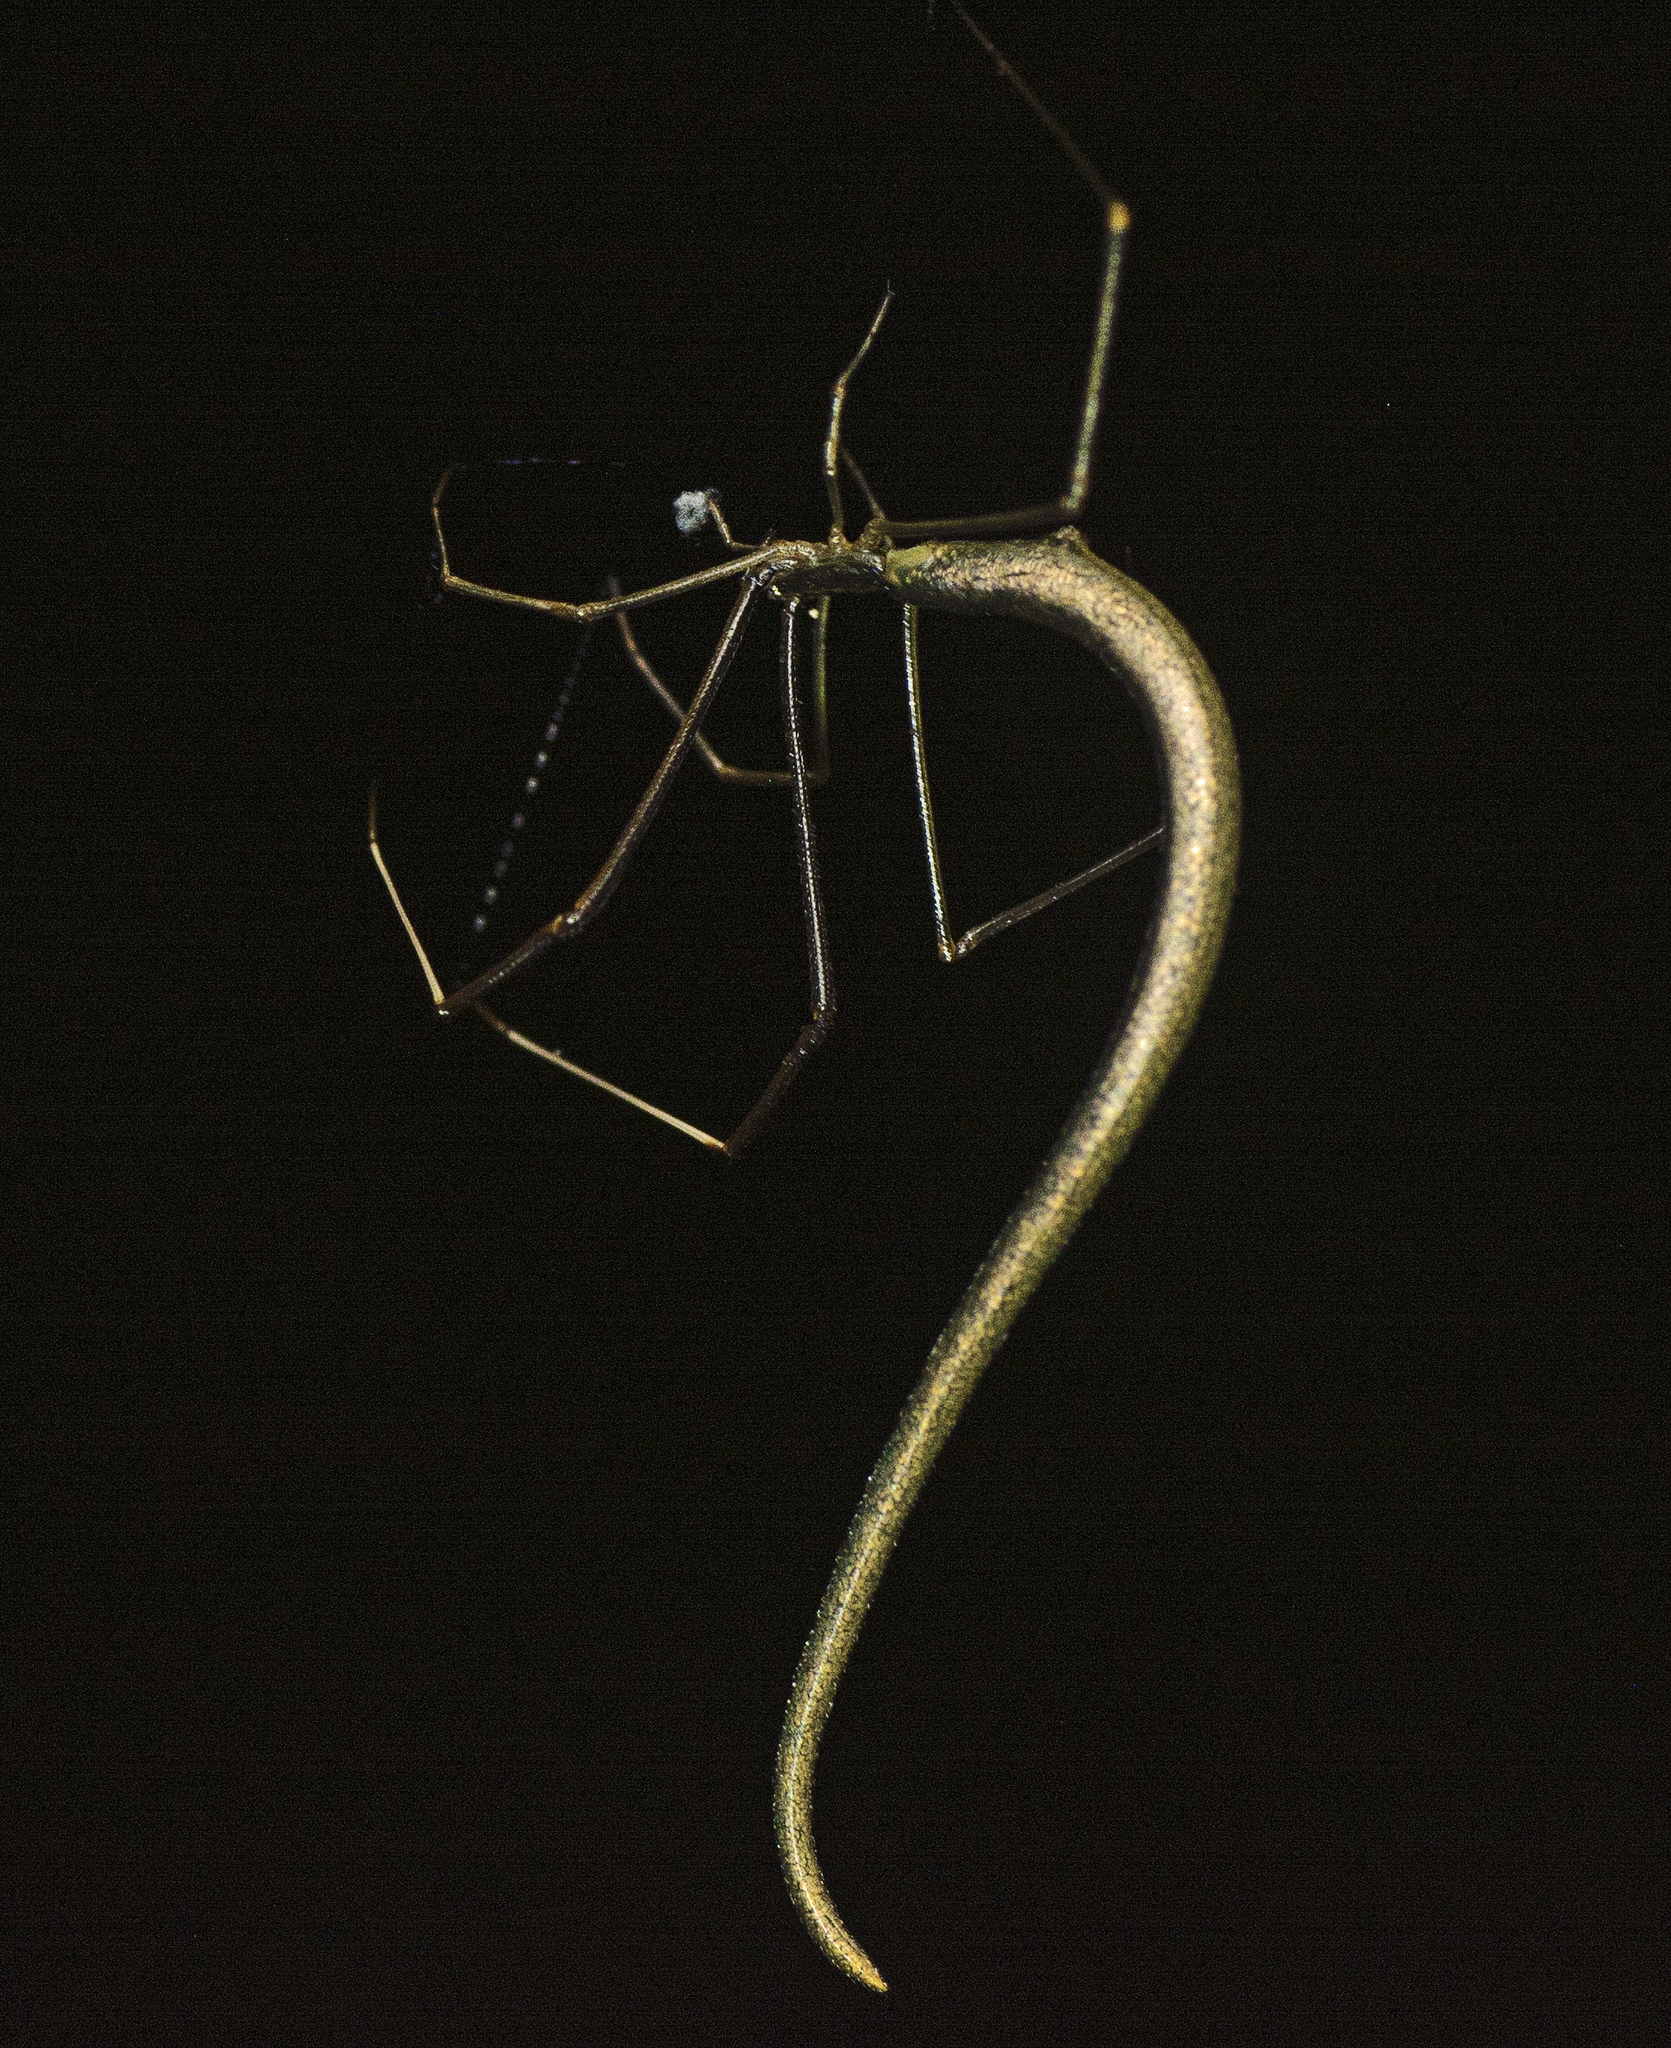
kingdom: Animalia
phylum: Arthropoda
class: Arachnida
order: Araneae
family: Theridiidae
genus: Ariamnes
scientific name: Ariamnes colubrinus
